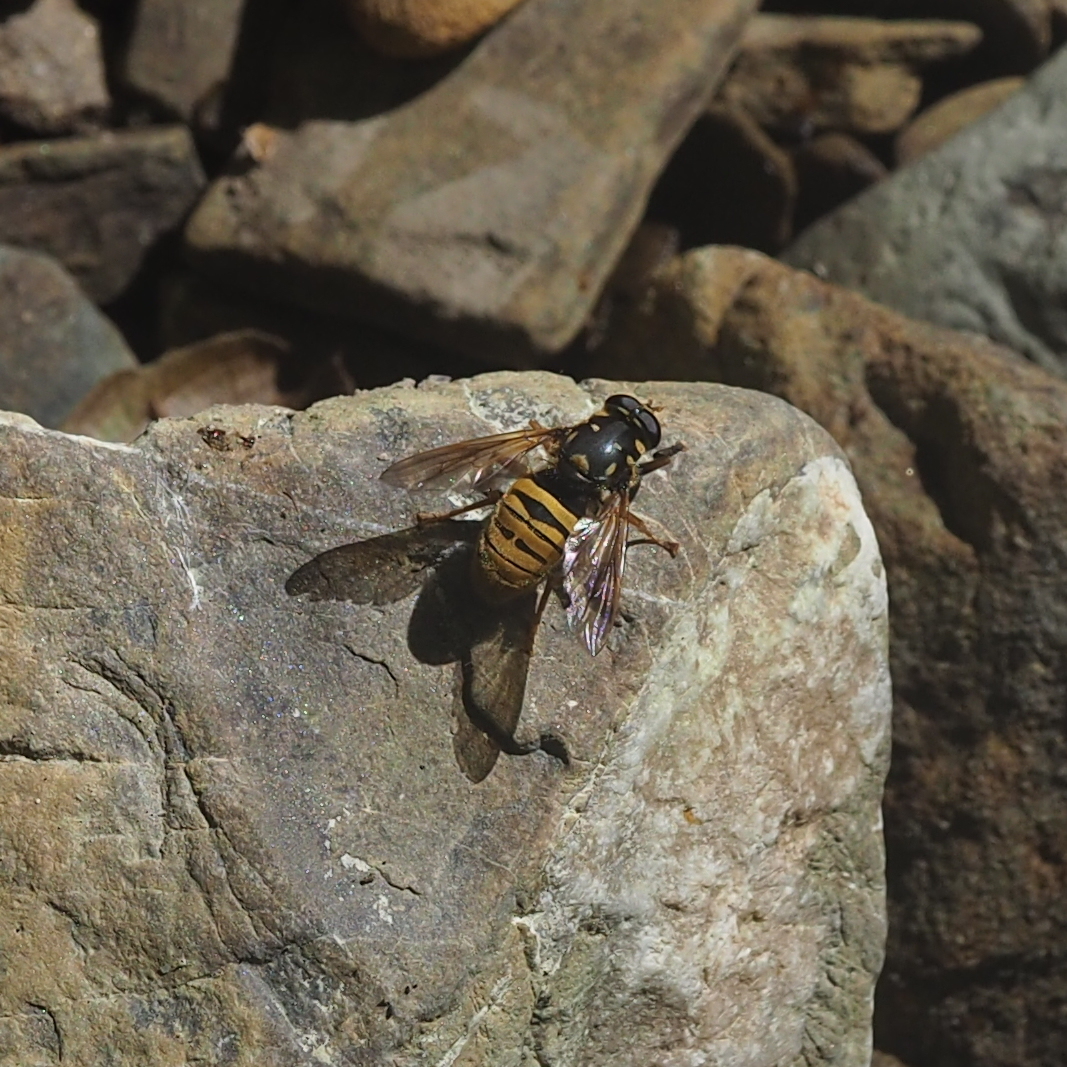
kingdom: Animalia
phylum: Arthropoda
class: Insecta
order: Diptera
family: Syrphidae
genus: Temnostoma
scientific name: Temnostoma meridionale
